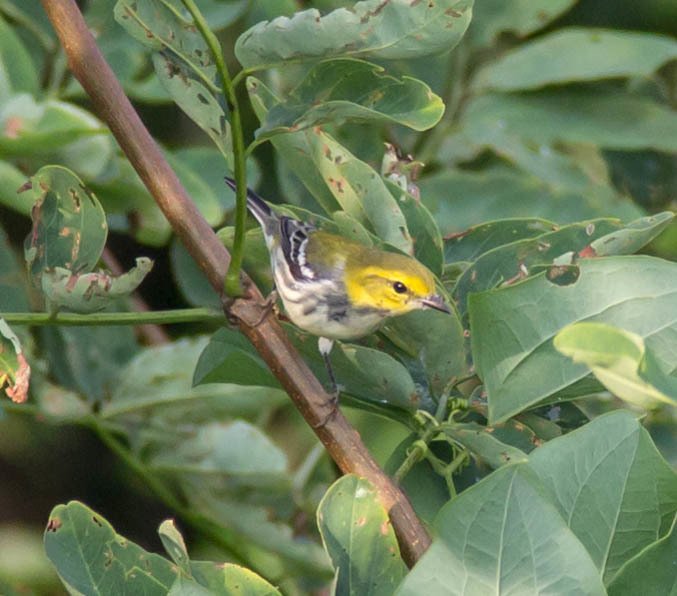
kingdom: Animalia
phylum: Chordata
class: Aves
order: Passeriformes
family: Parulidae
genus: Setophaga
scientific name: Setophaga virens
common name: Black-throated green warbler
